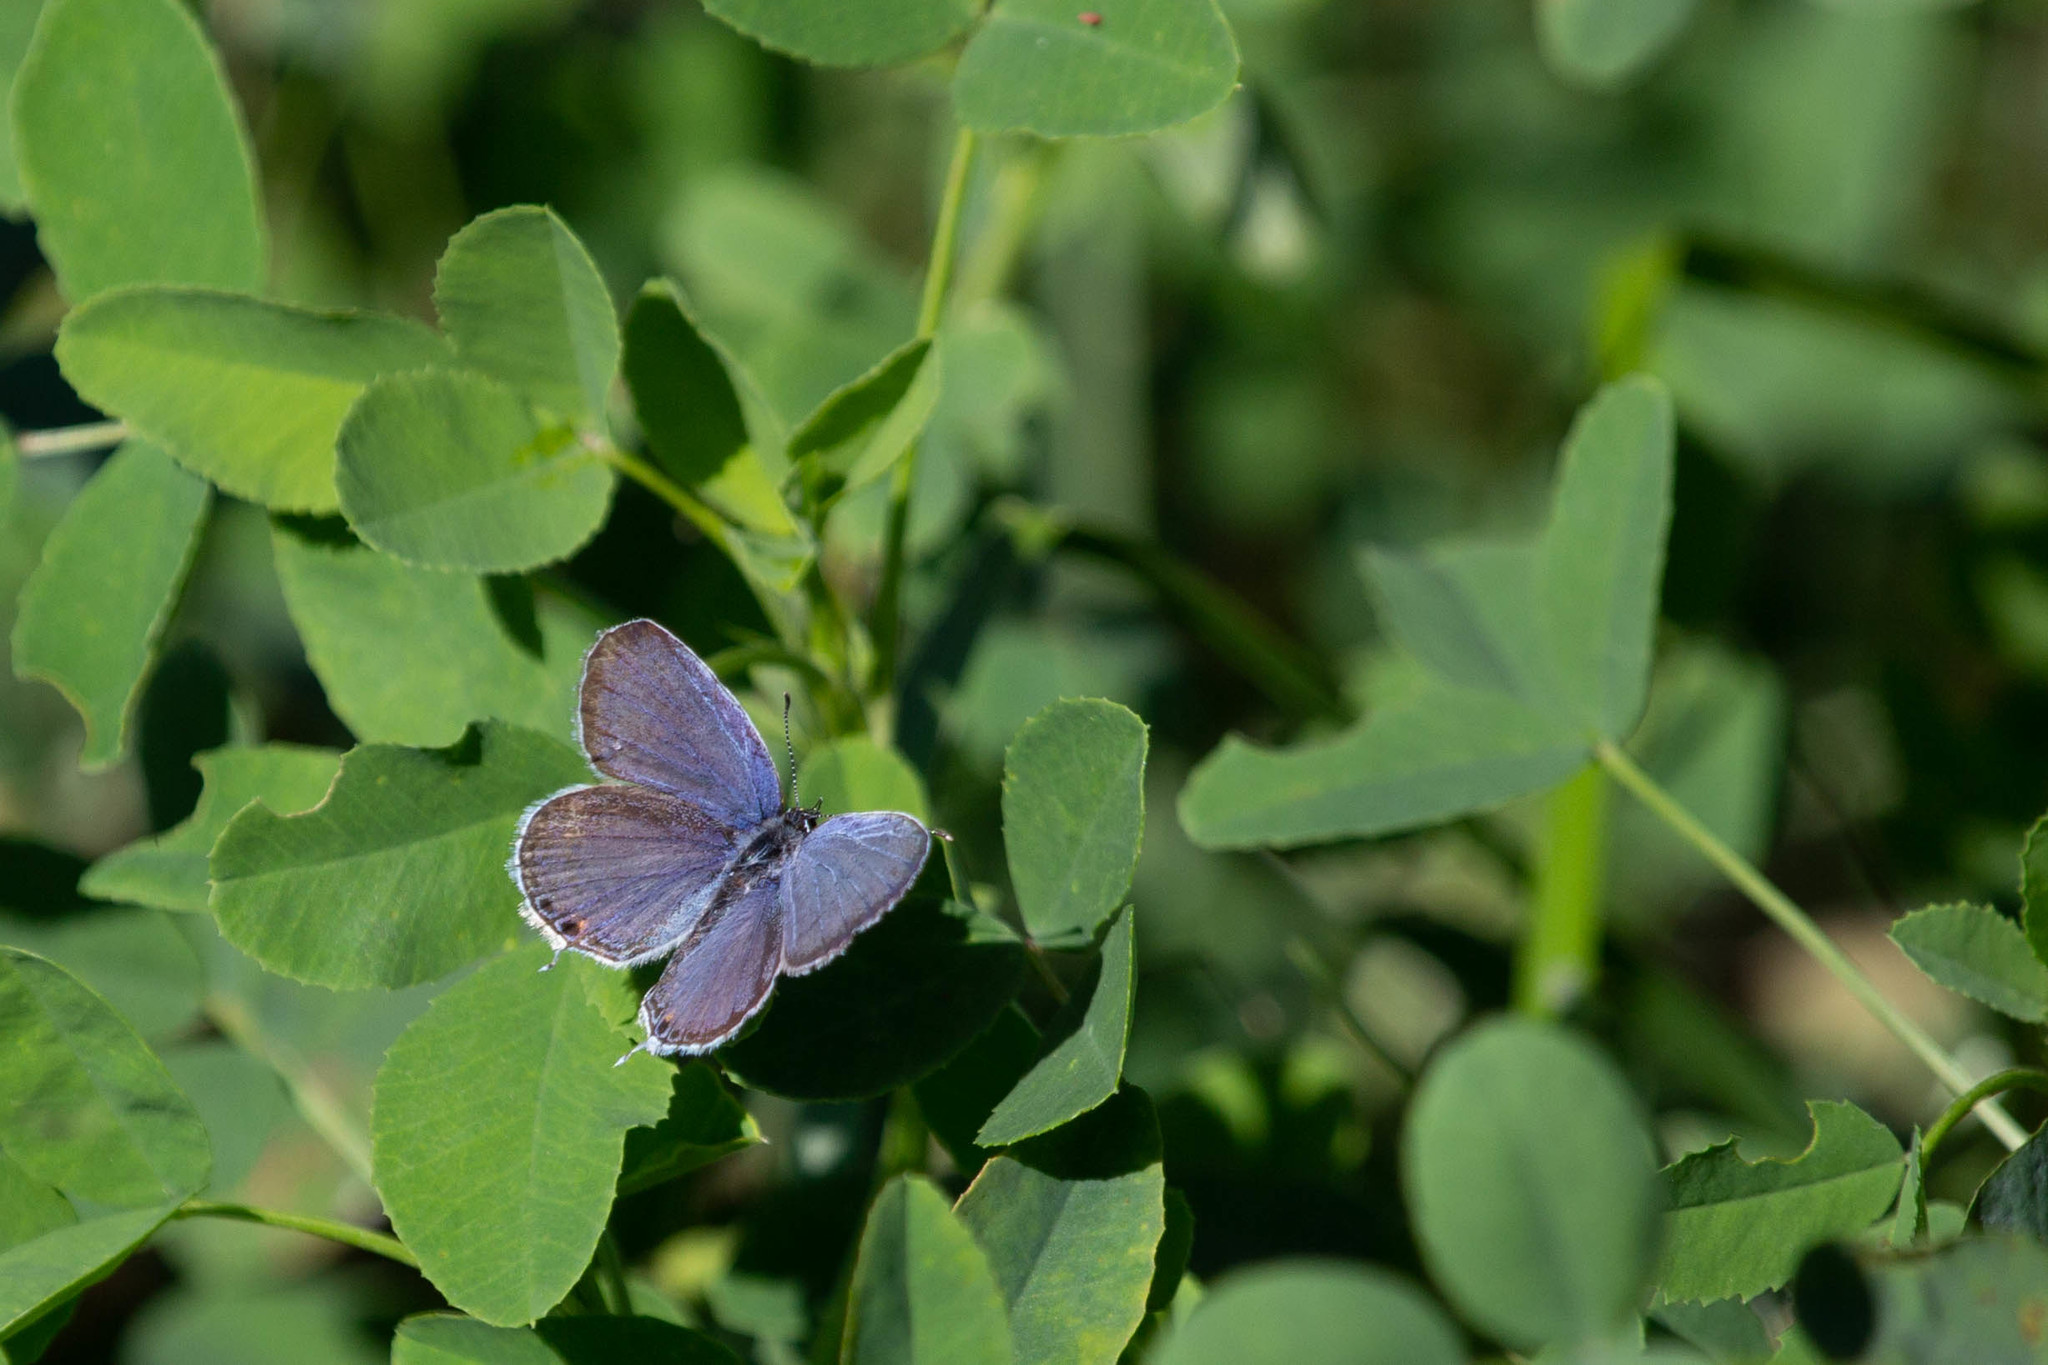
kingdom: Animalia
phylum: Arthropoda
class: Insecta
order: Lepidoptera
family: Lycaenidae
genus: Elkalyce
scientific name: Elkalyce comyntas
